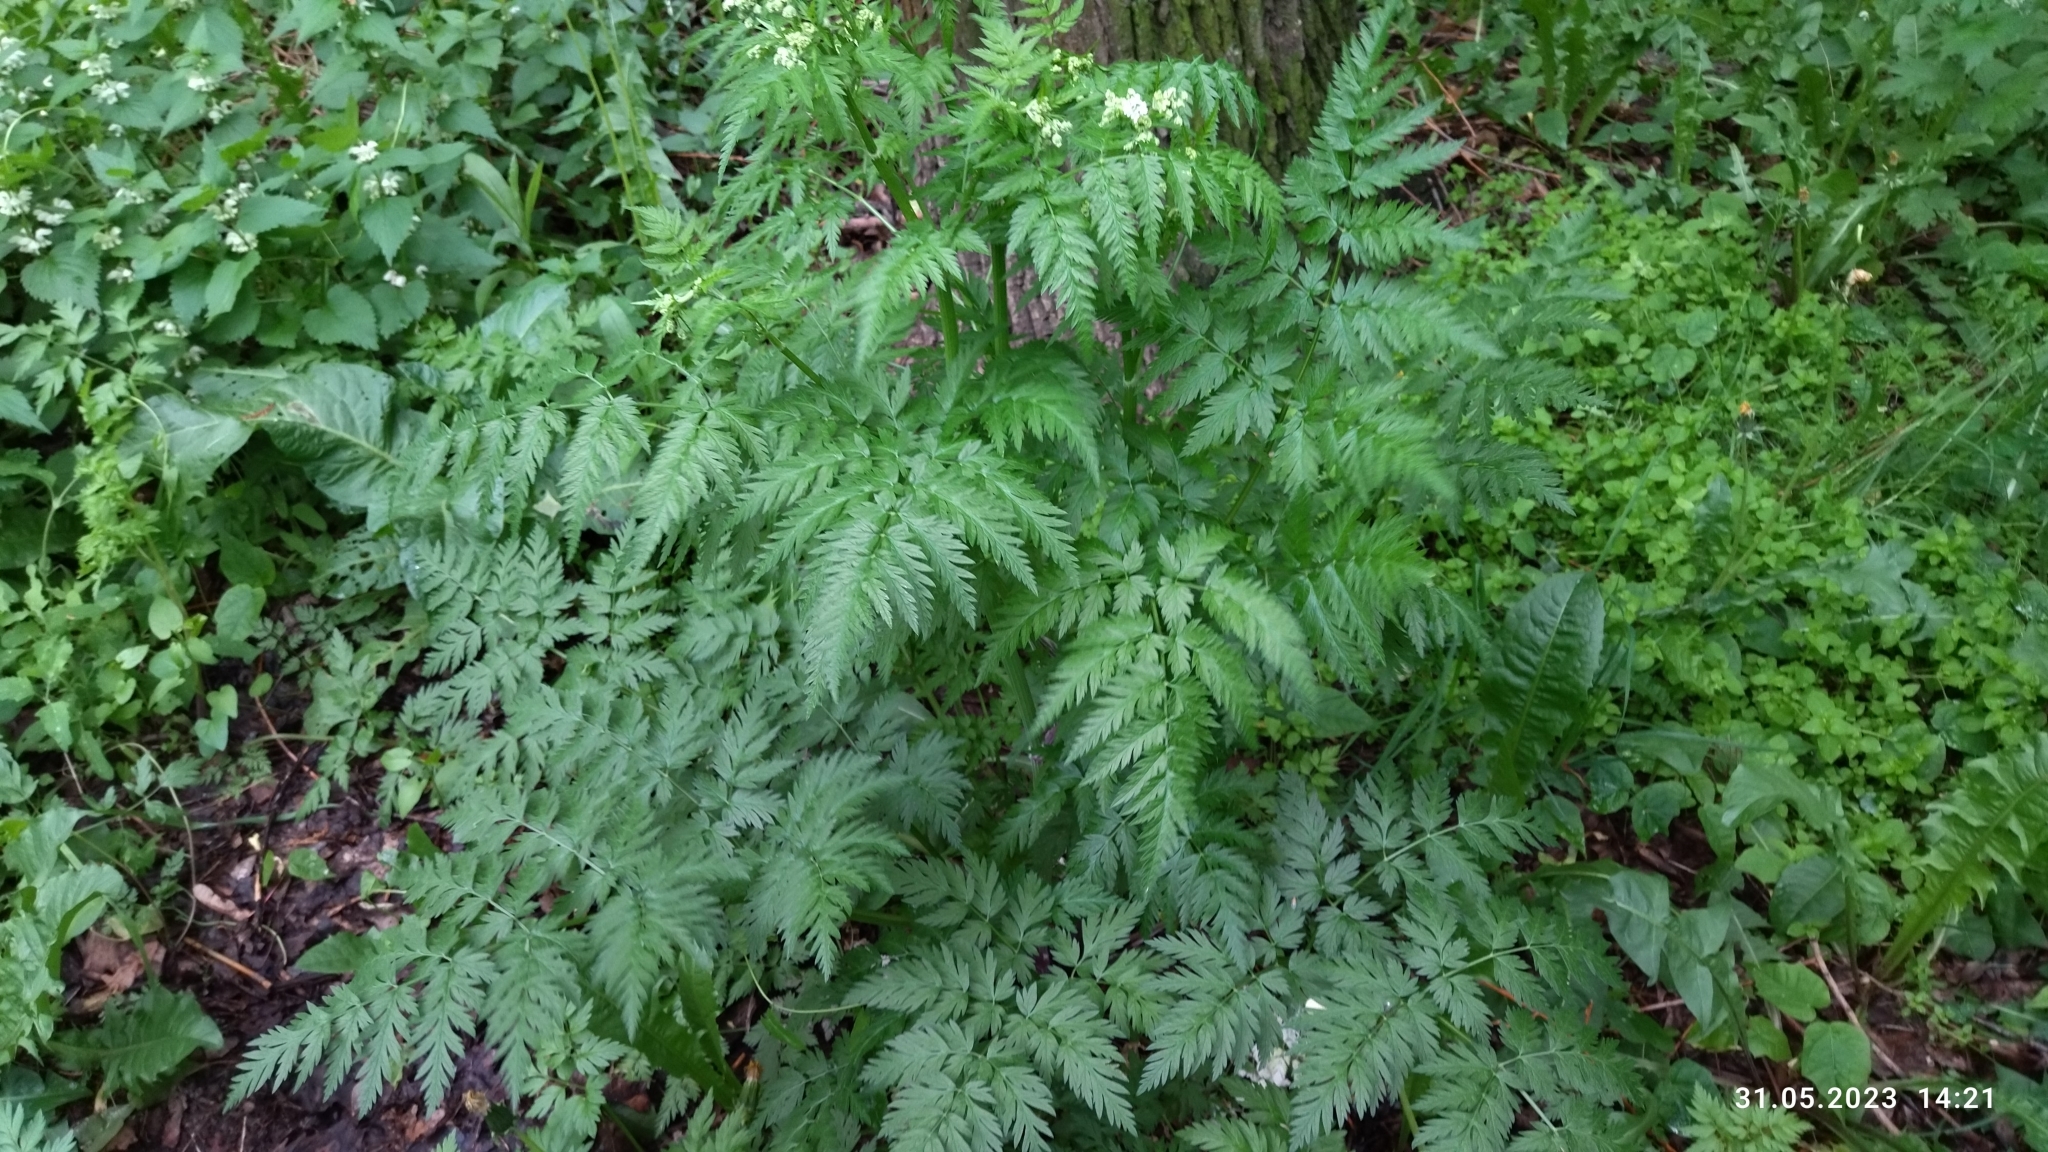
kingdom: Plantae
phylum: Tracheophyta
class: Magnoliopsida
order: Apiales
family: Apiaceae
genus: Anthriscus
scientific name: Anthriscus sylvestris
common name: Cow parsley
